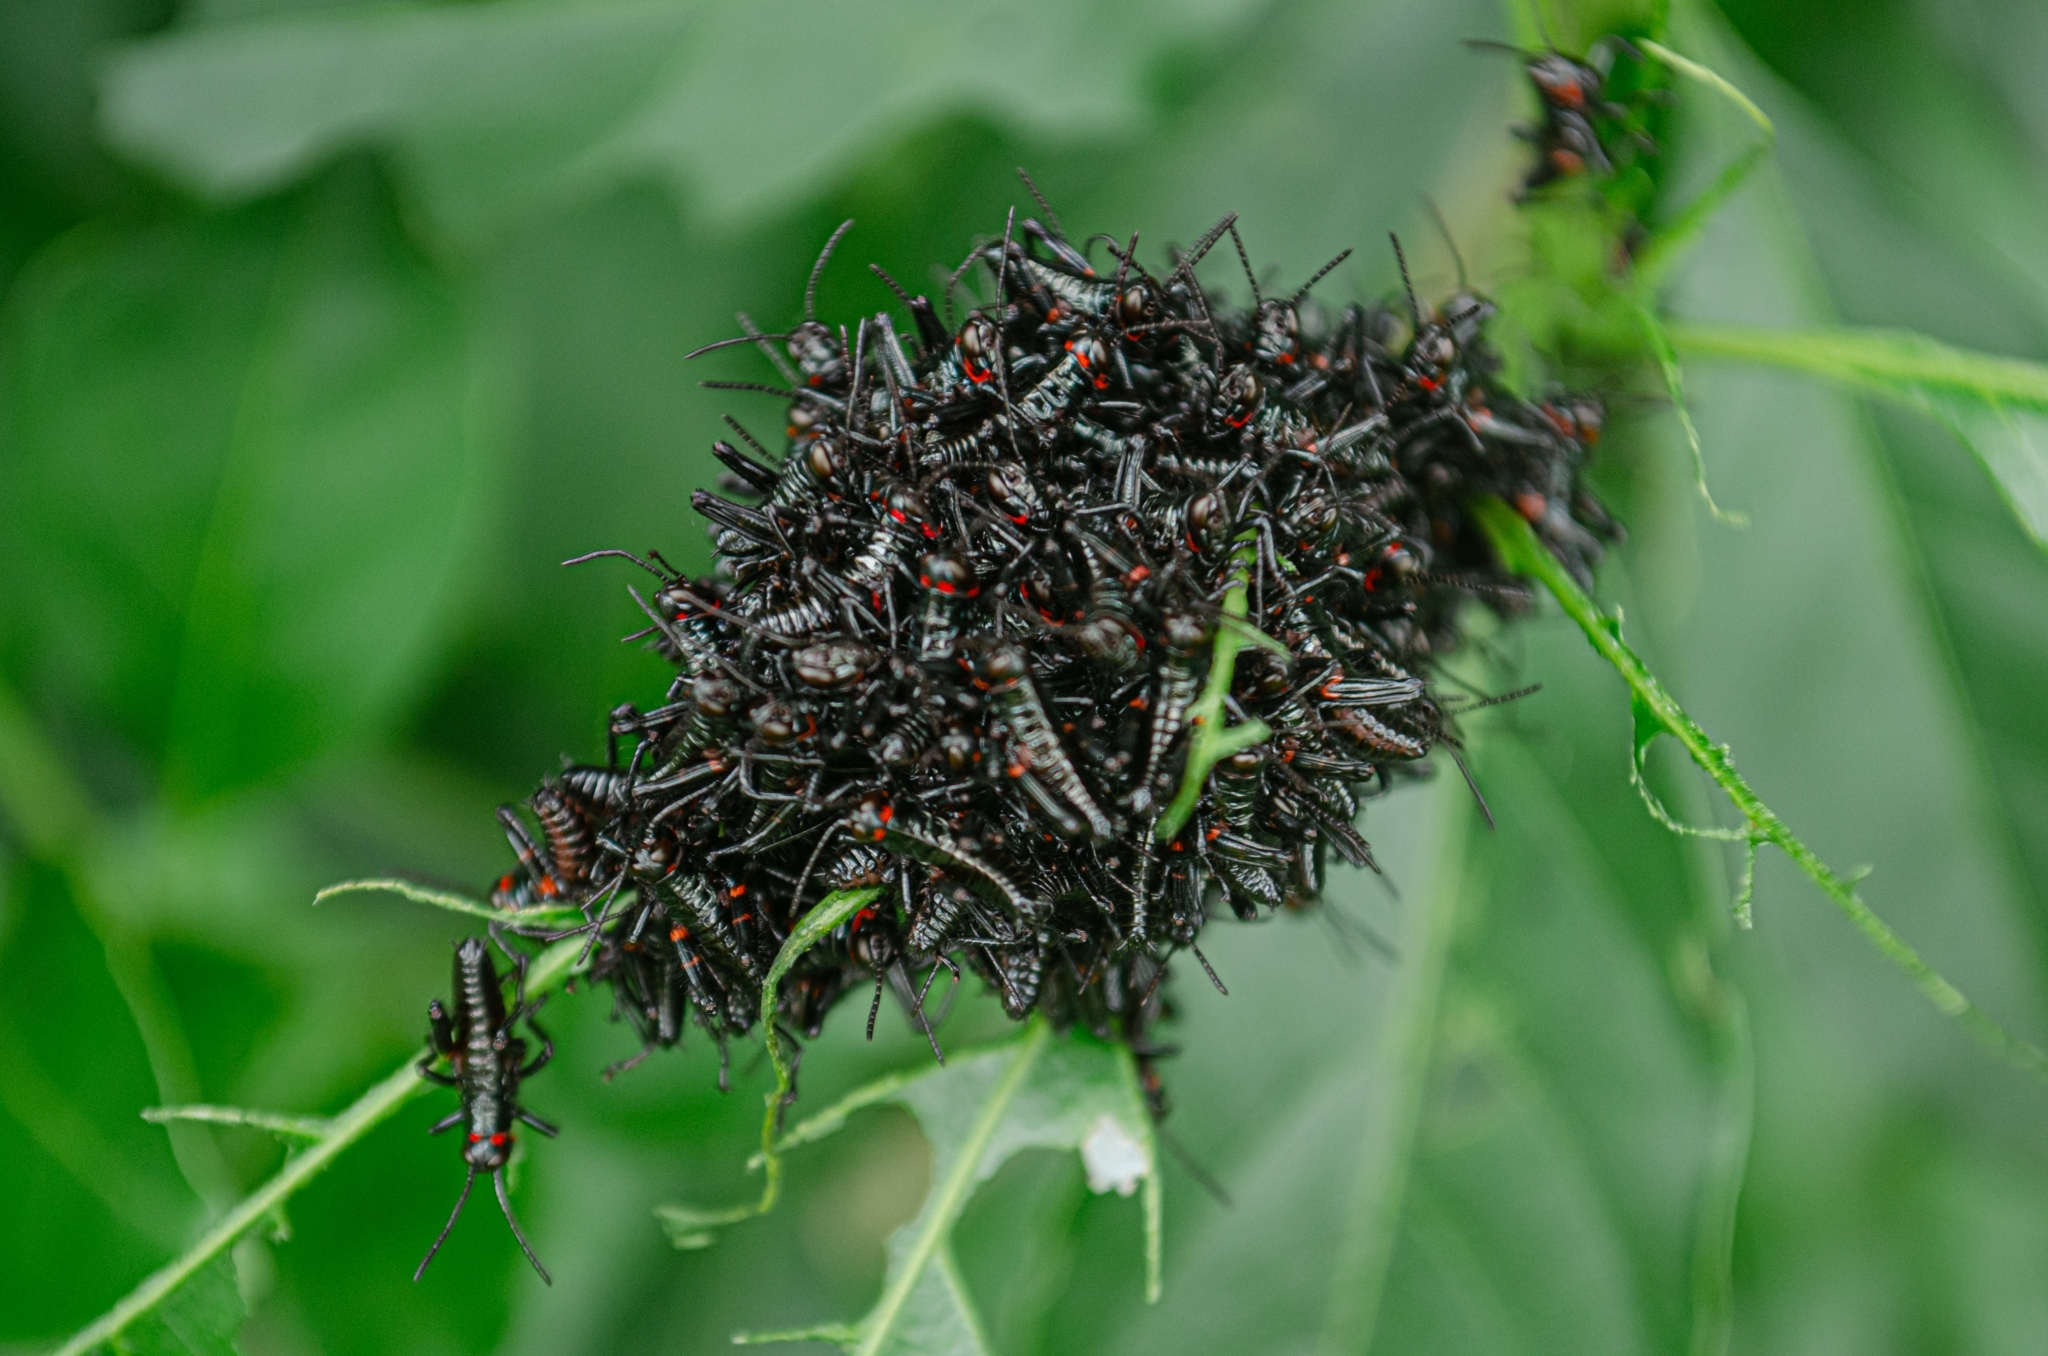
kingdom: Animalia
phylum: Arthropoda
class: Insecta
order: Orthoptera
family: Romaleidae
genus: Chromacris
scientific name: Chromacris speciosa
